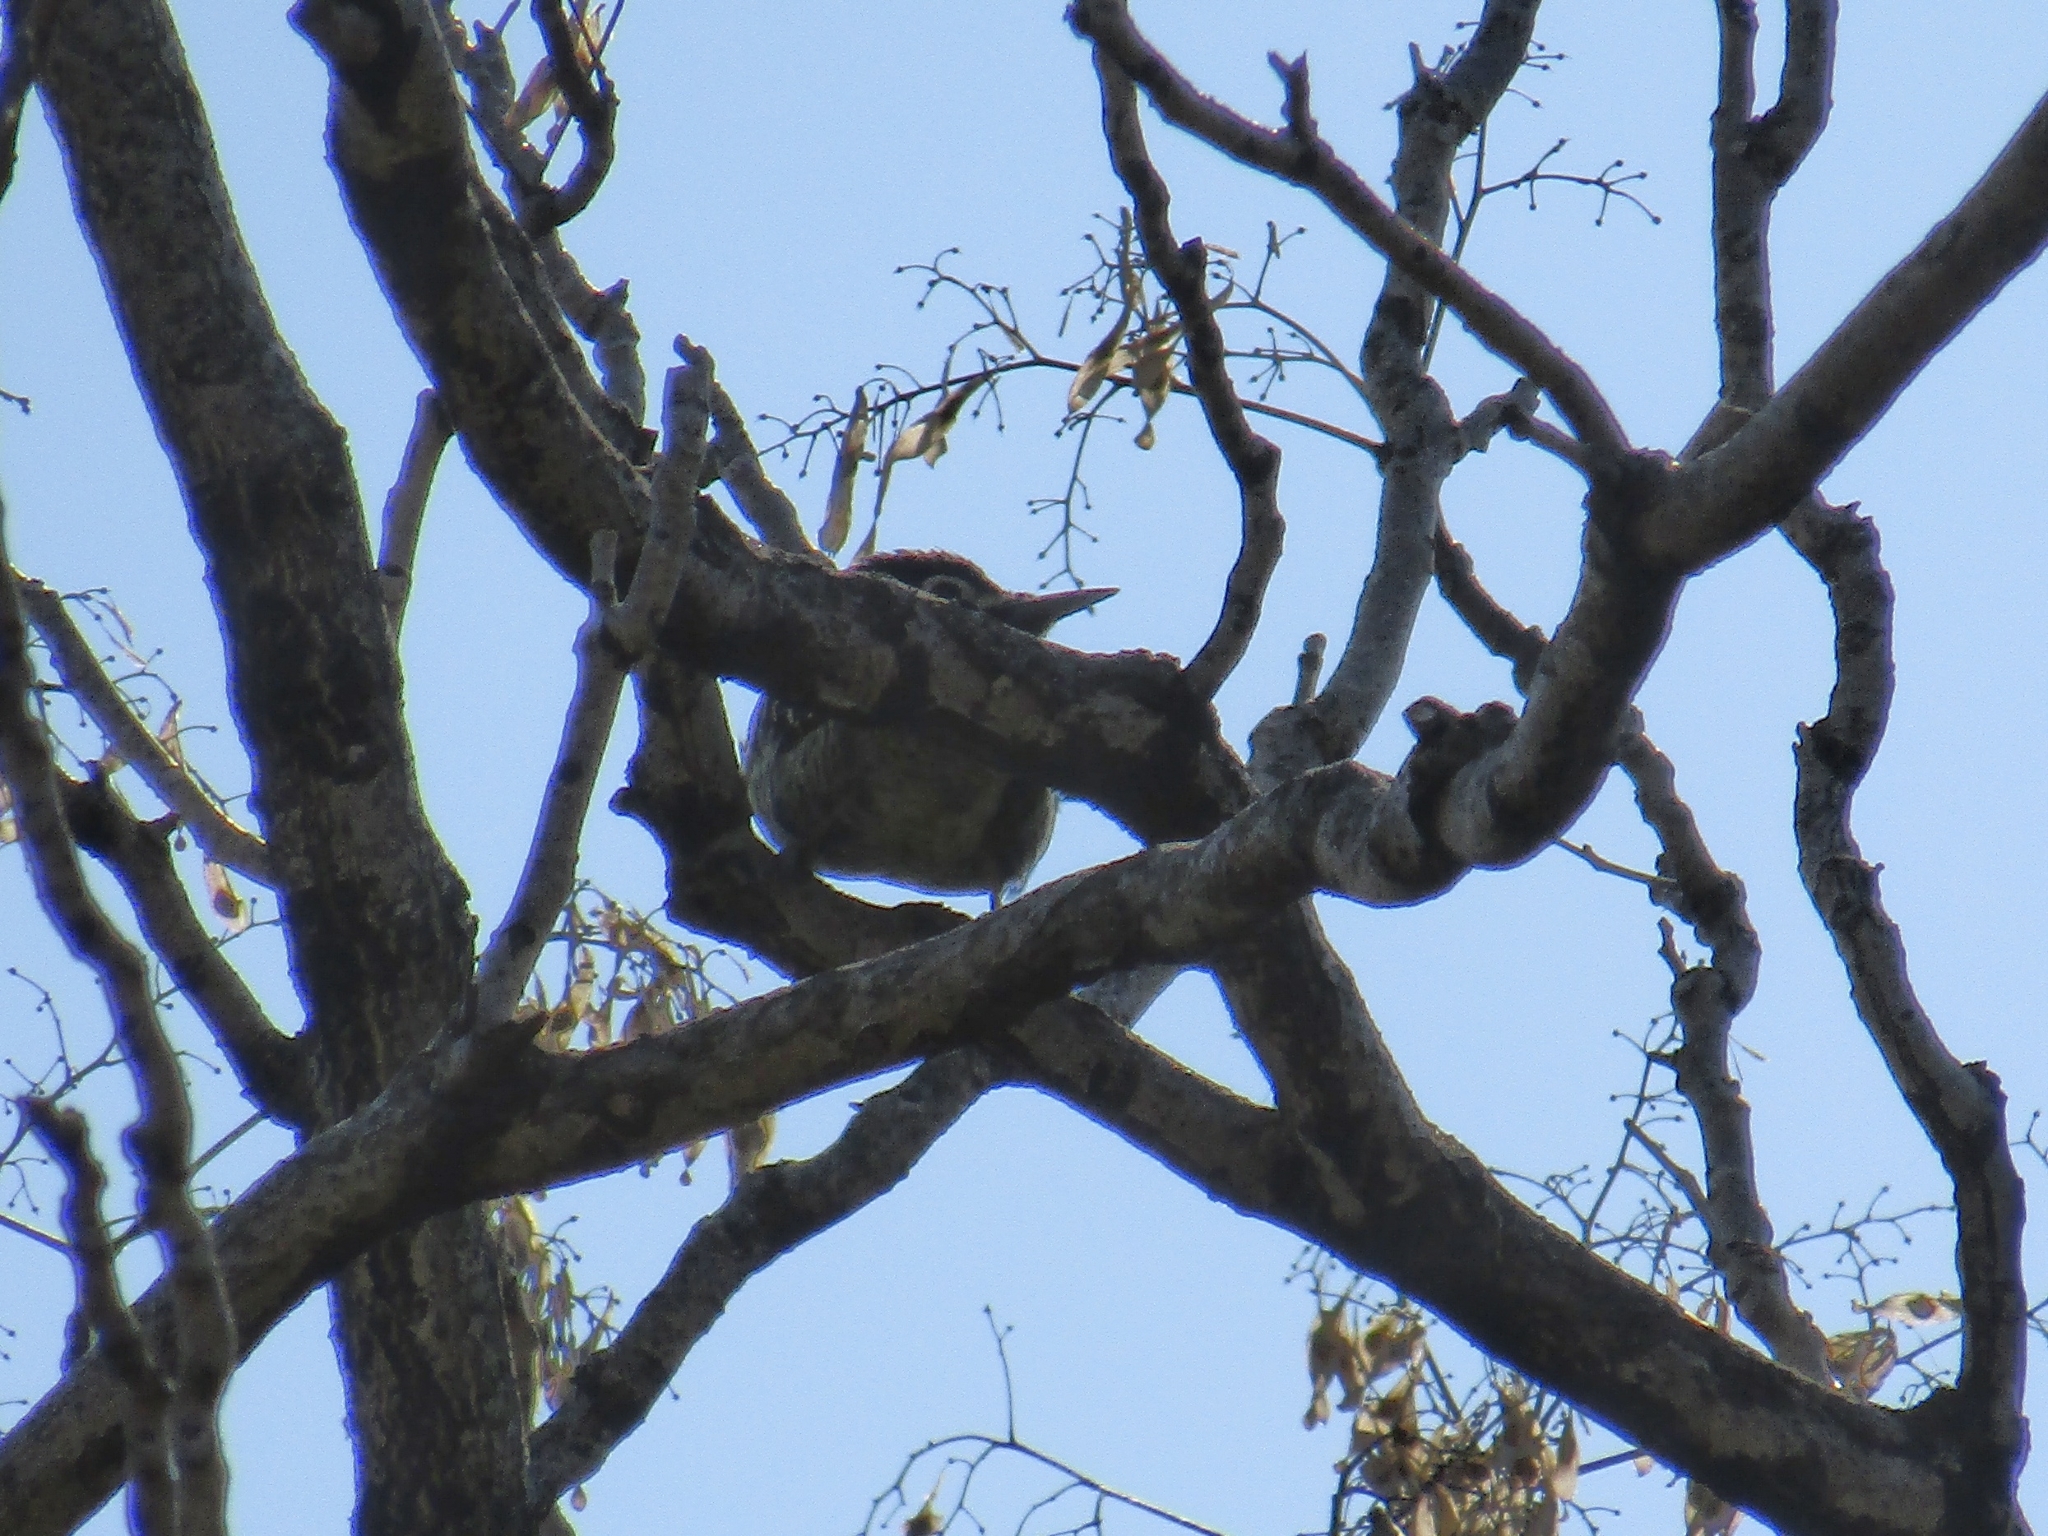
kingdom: Animalia
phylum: Chordata
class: Aves
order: Piciformes
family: Picidae
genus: Colaptes
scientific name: Colaptes melanochloros
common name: Green-barred woodpecker
